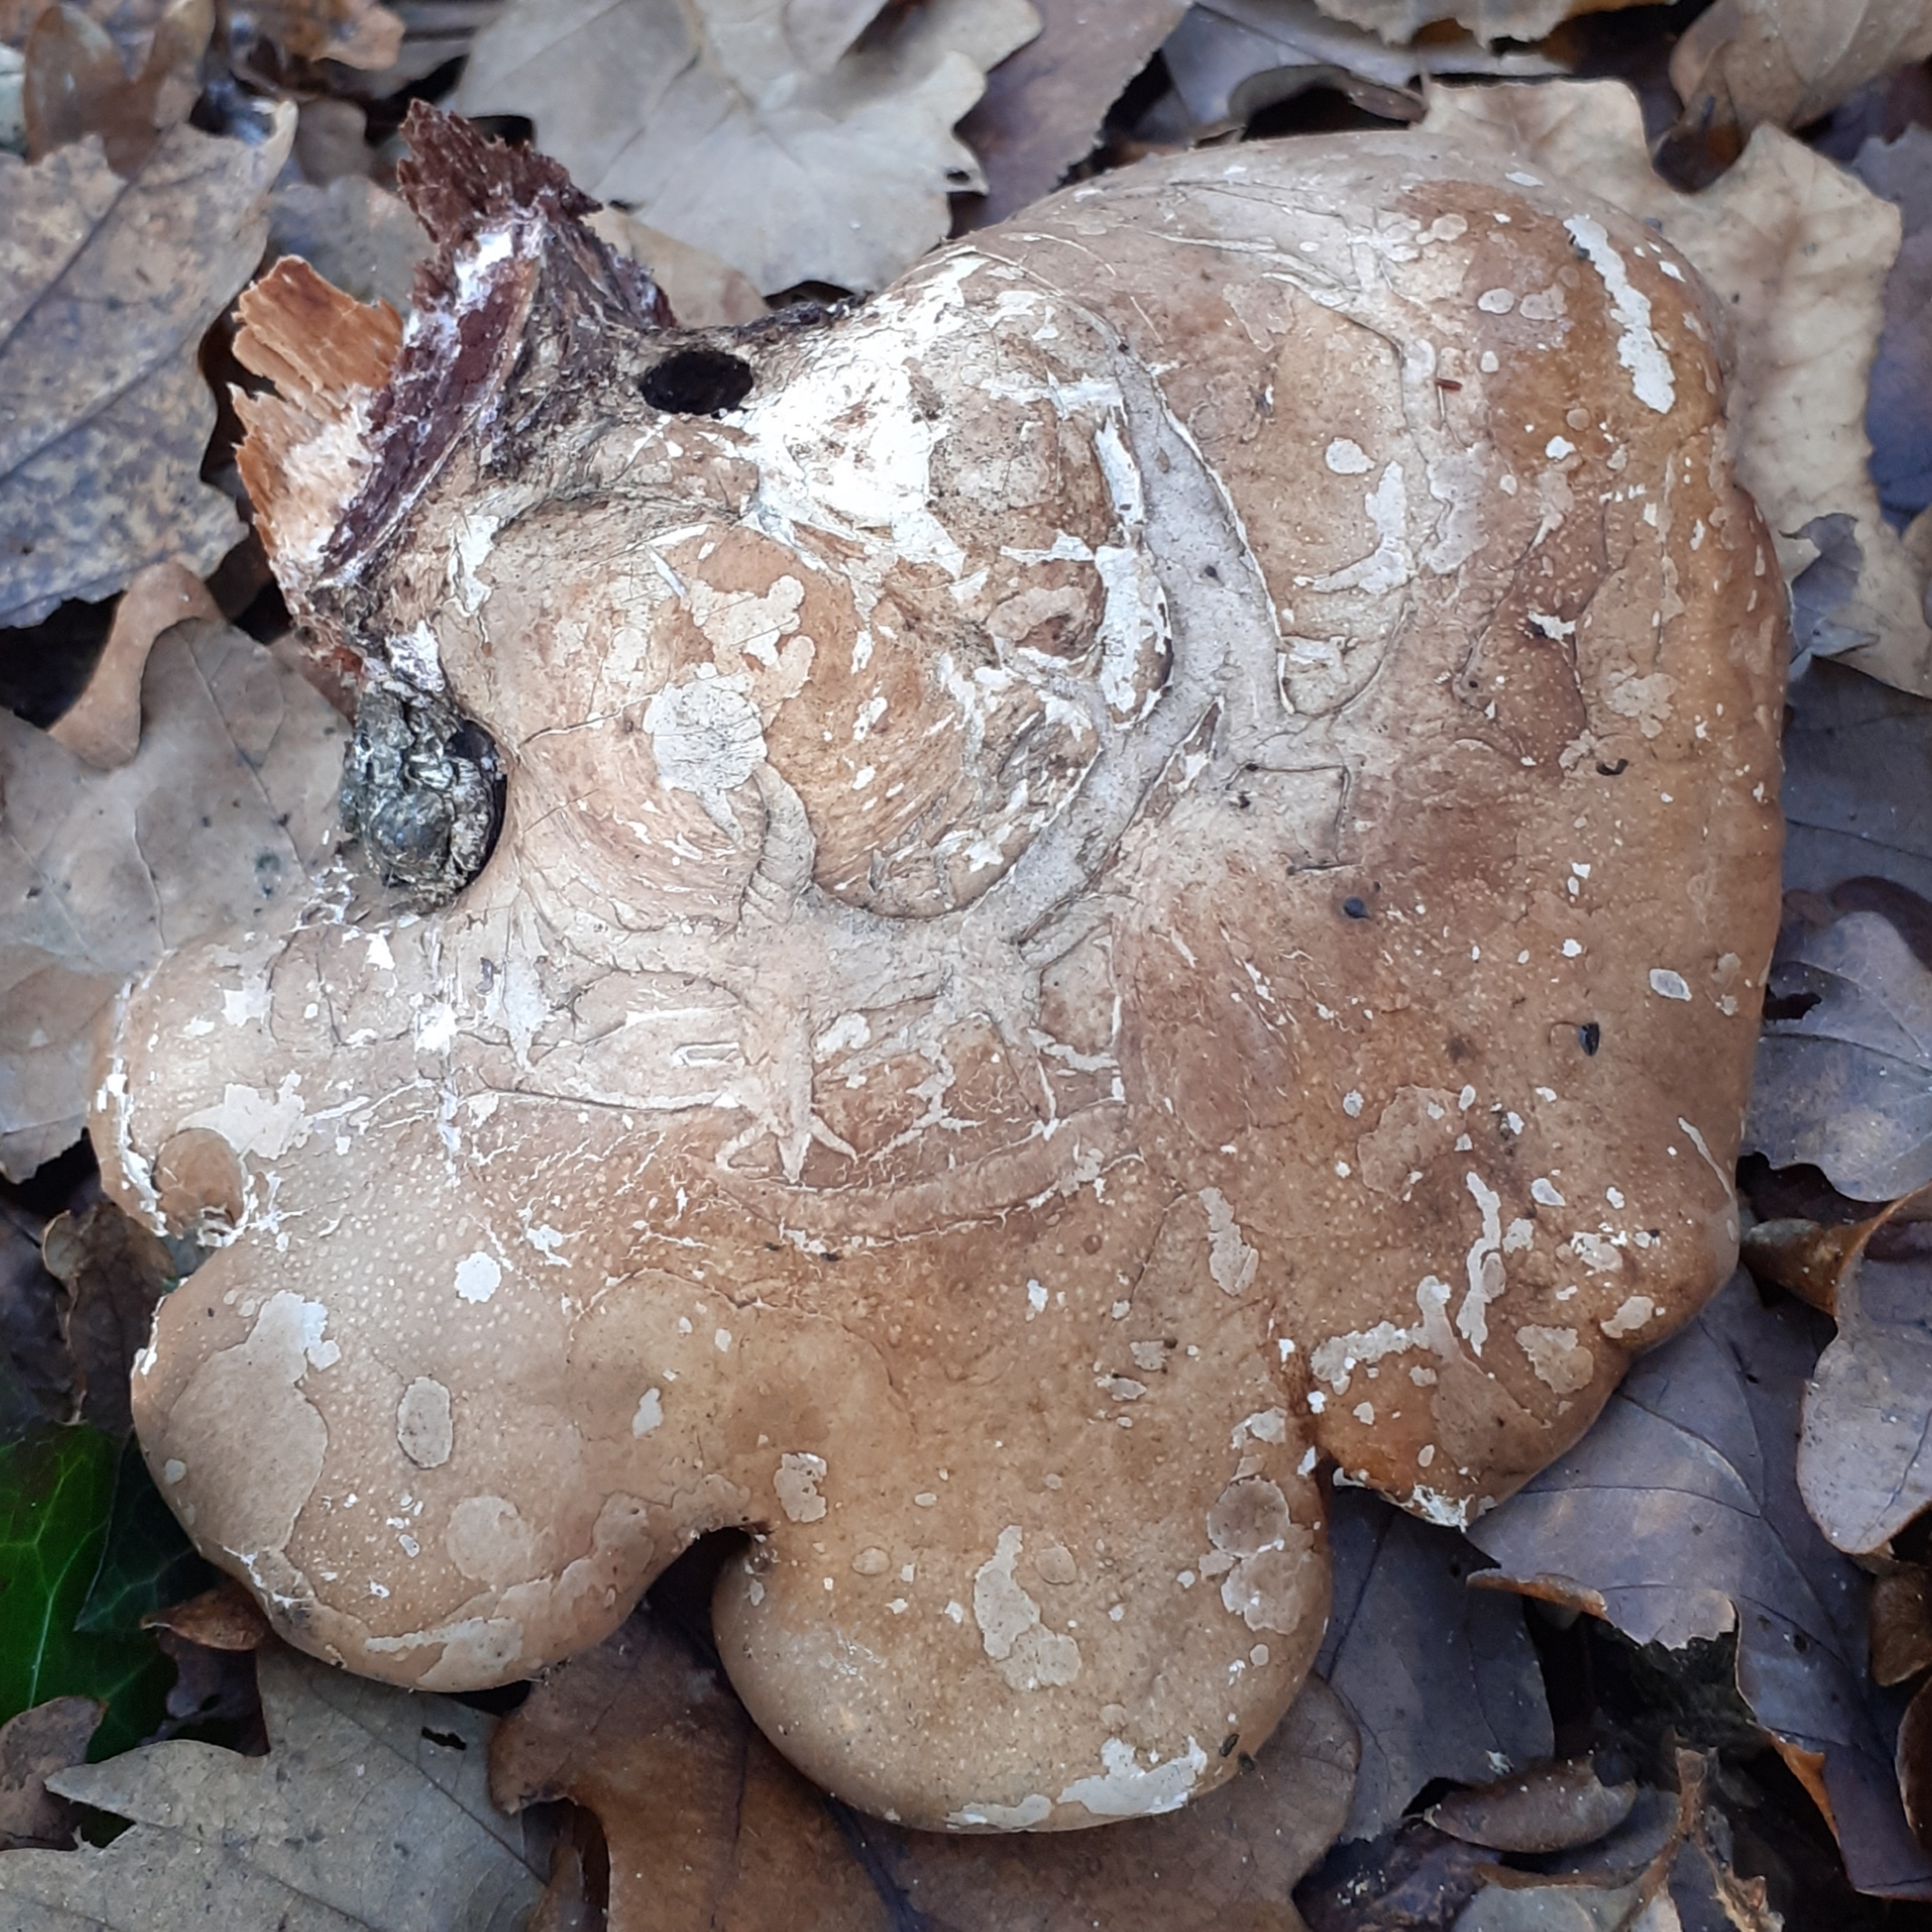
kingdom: Fungi
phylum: Basidiomycota
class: Agaricomycetes
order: Polyporales
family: Fomitopsidaceae
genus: Fomitopsis
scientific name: Fomitopsis betulina
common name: Birch polypore
